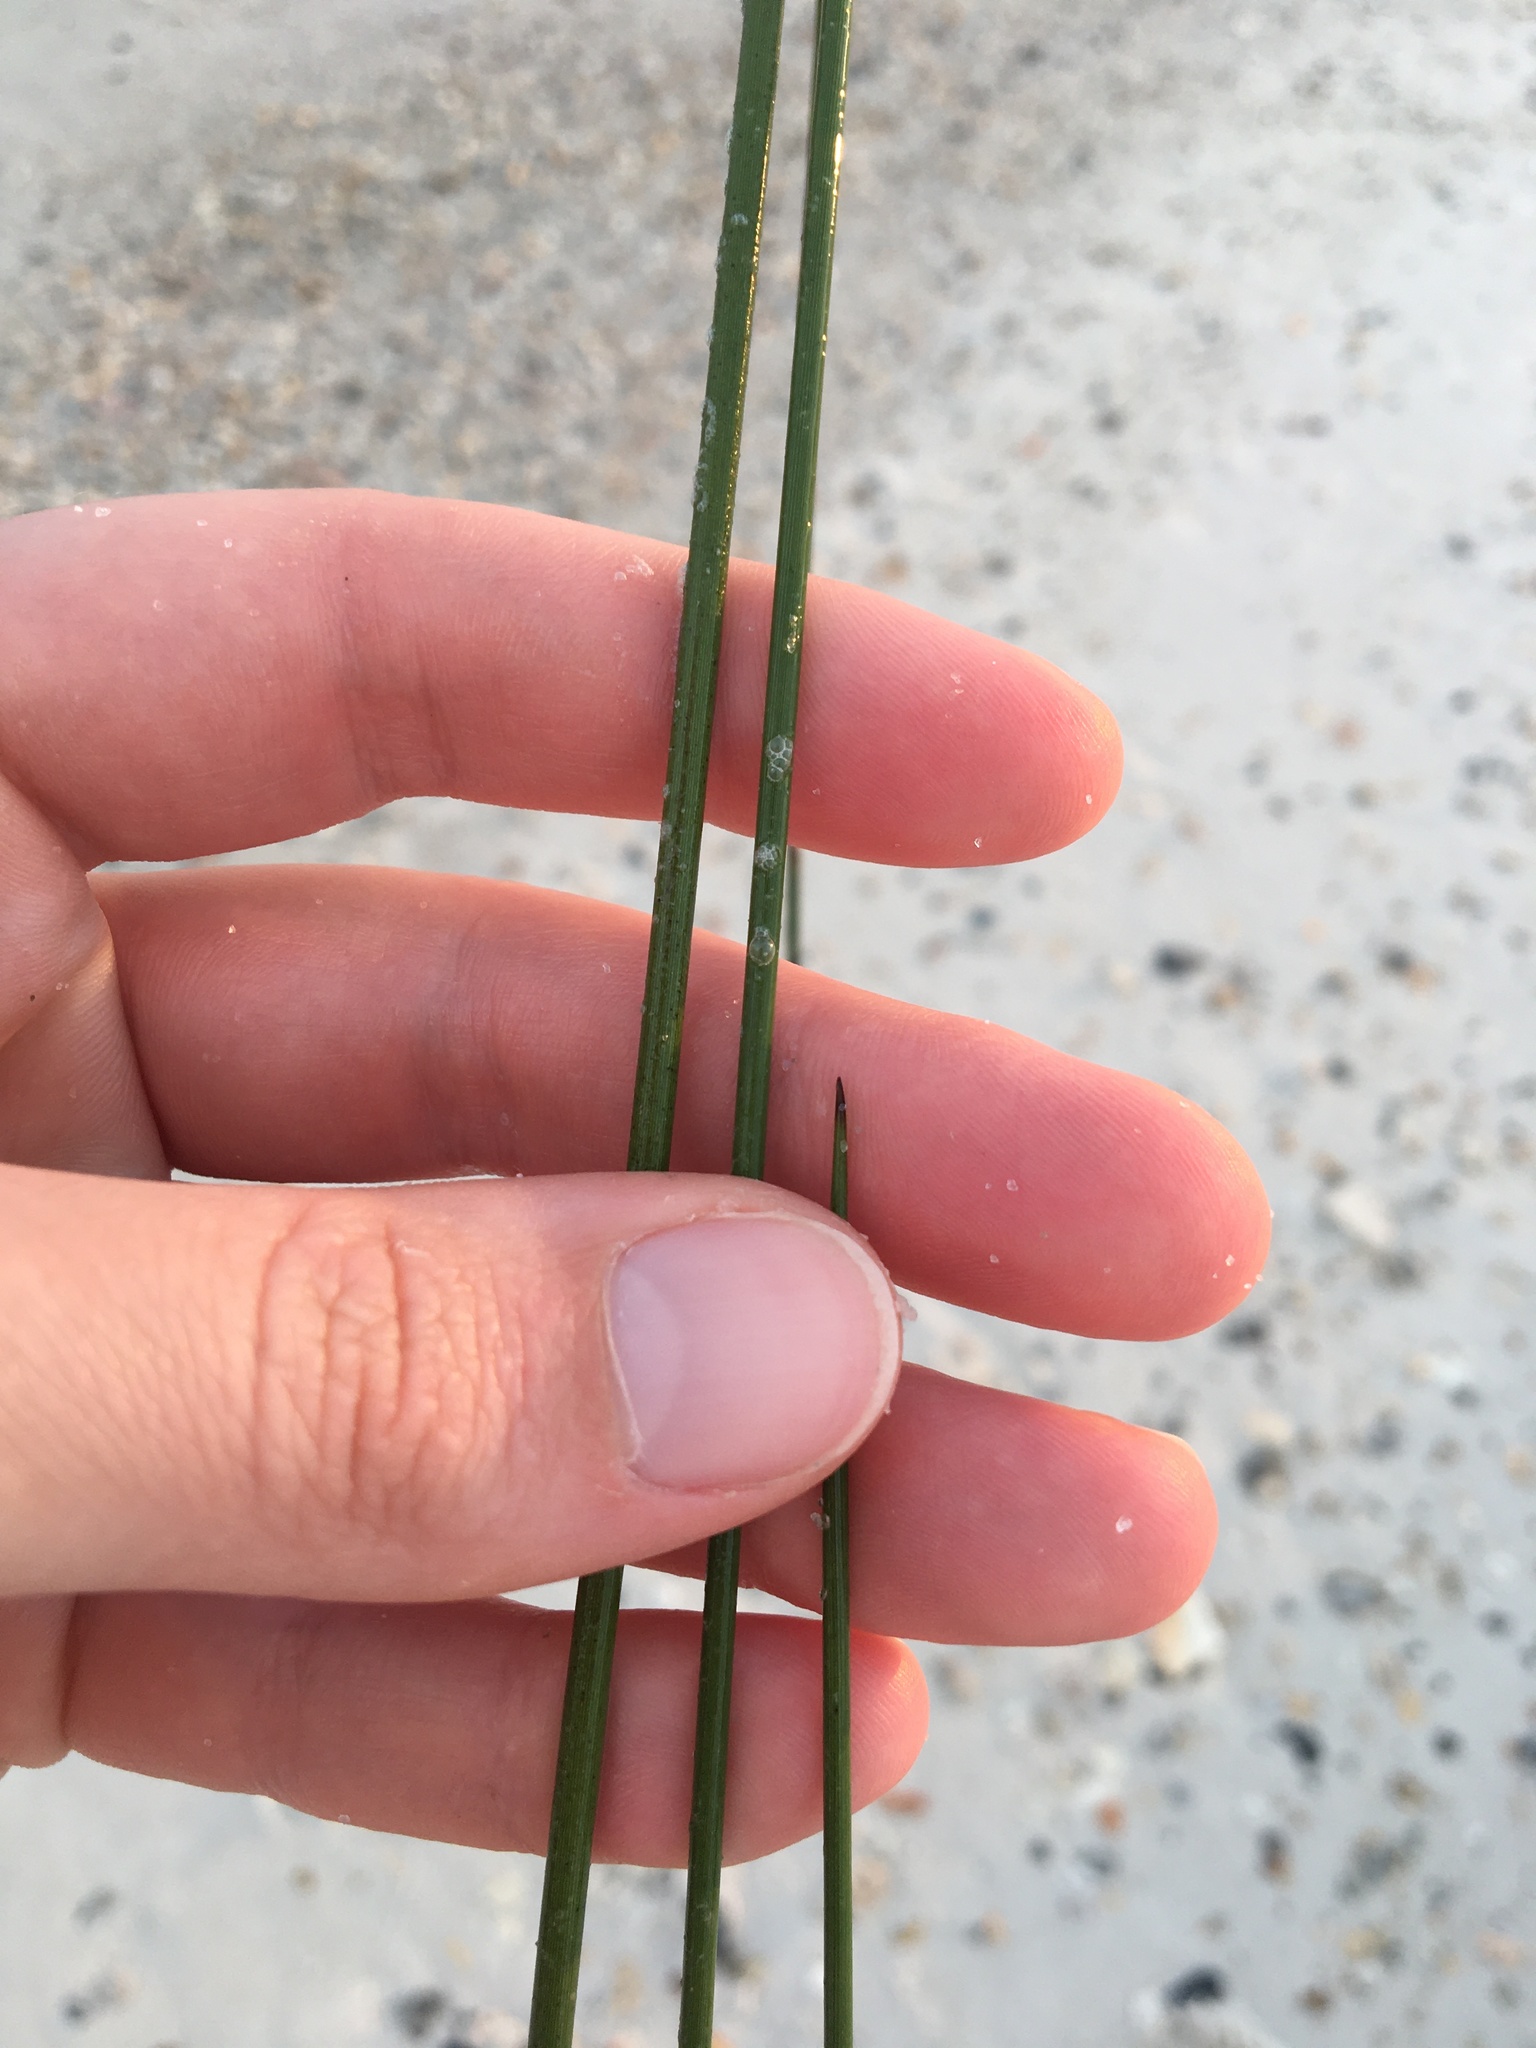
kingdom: Plantae
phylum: Tracheophyta
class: Liliopsida
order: Poales
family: Juncaceae
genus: Juncus
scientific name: Juncus roemerianus
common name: Roemer's rush
